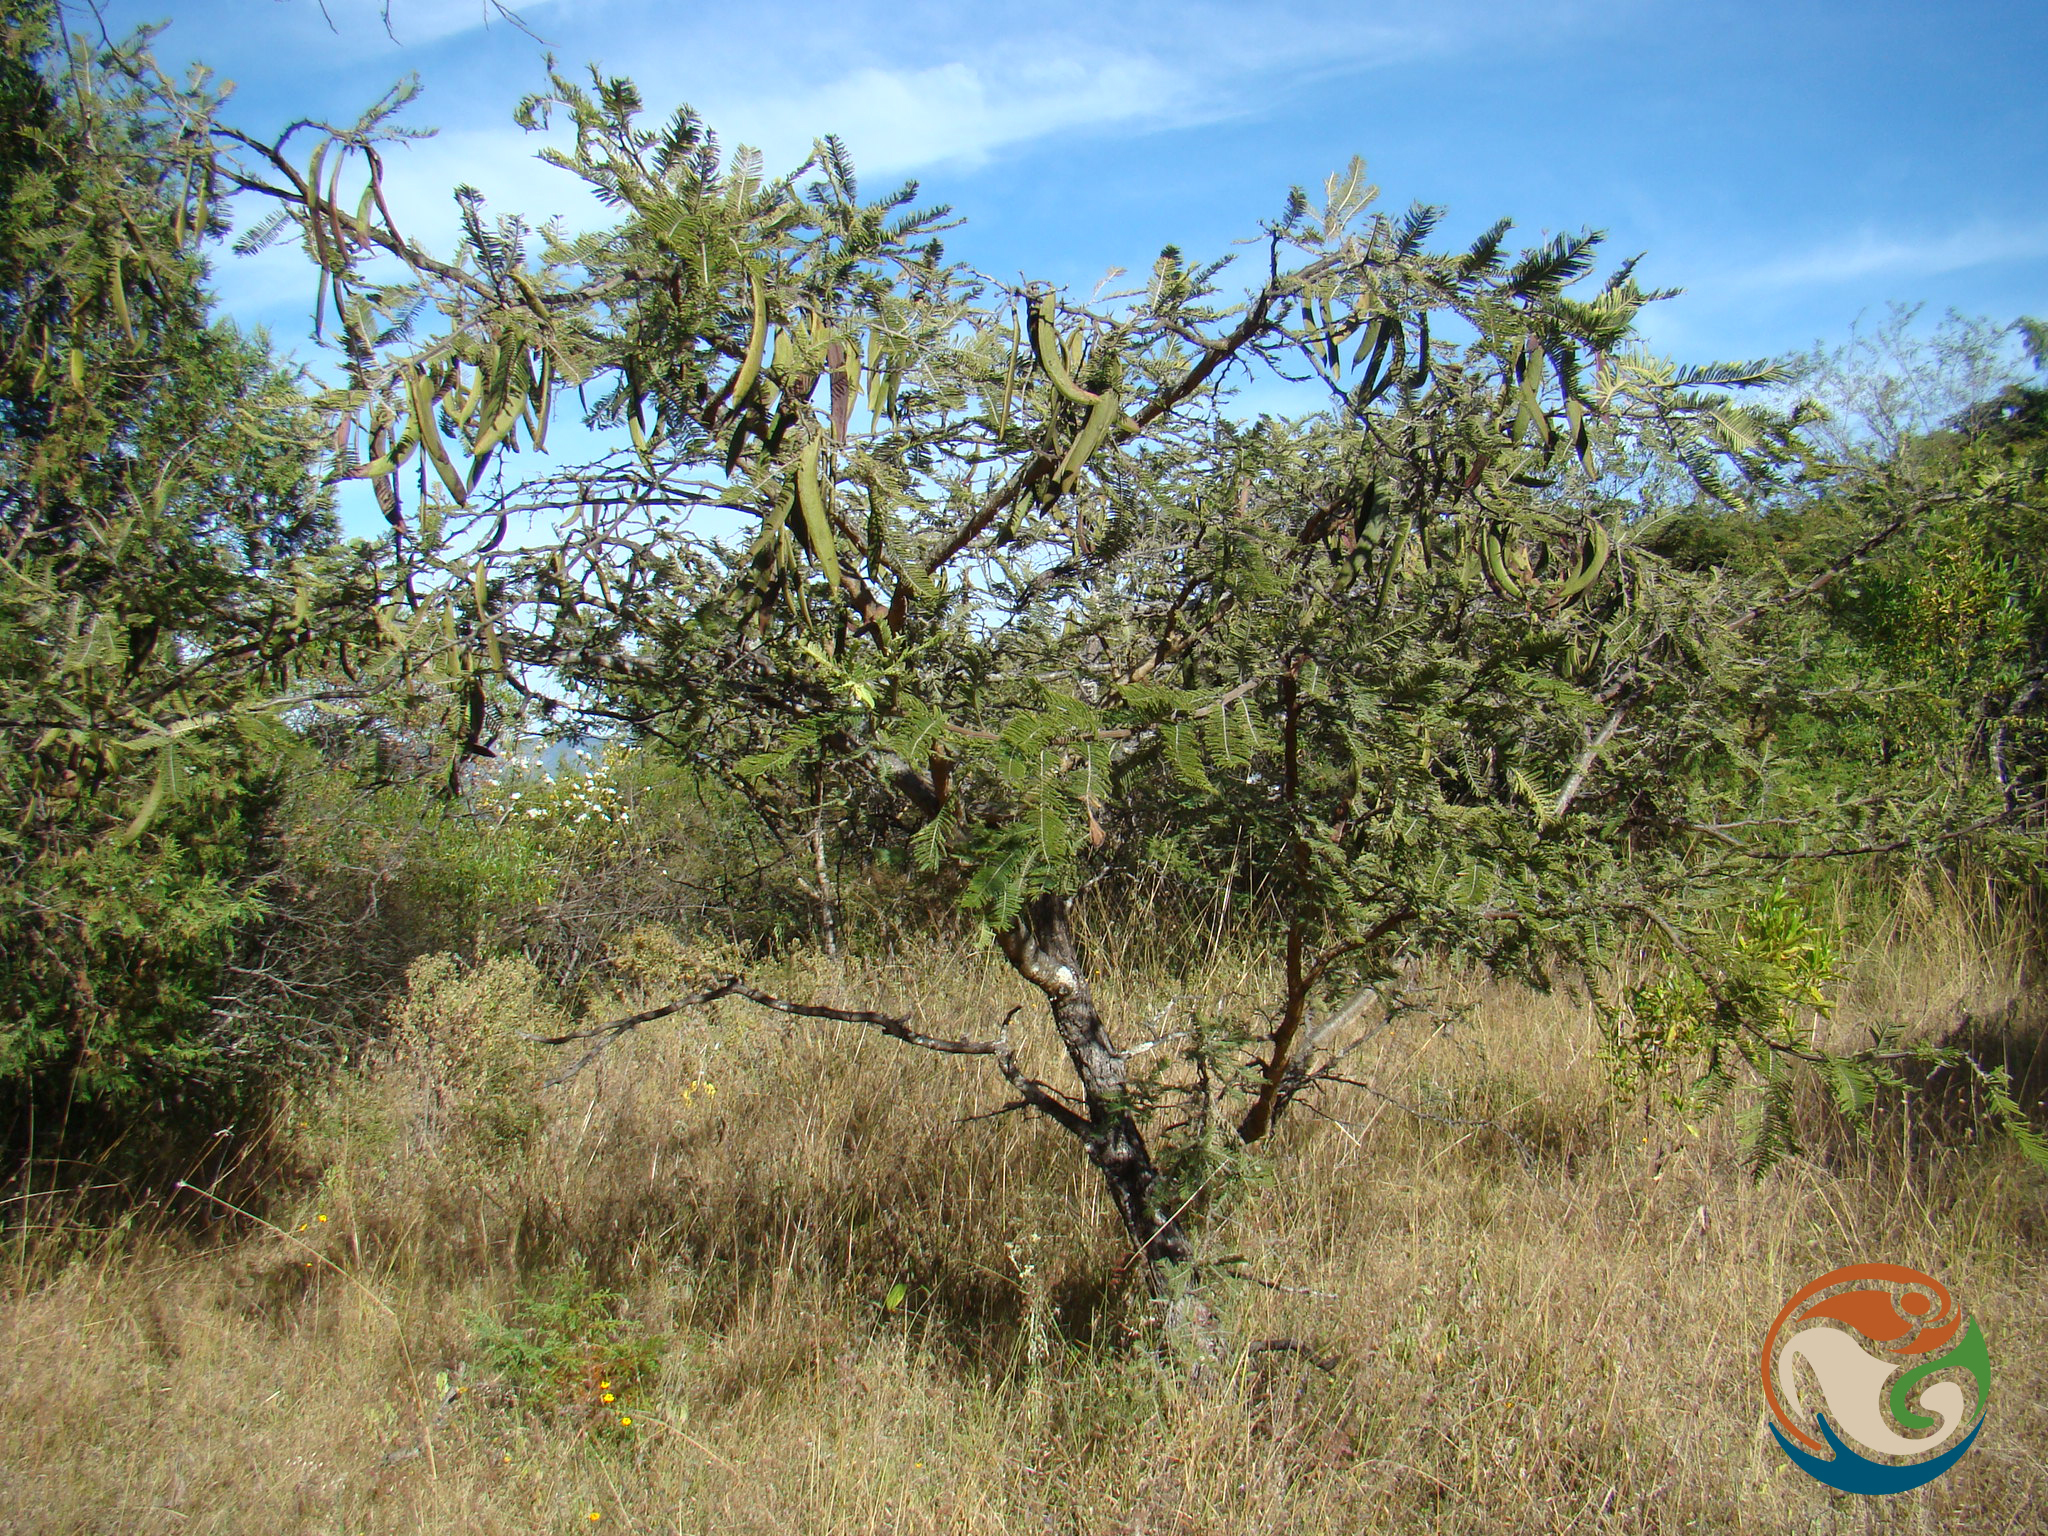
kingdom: Plantae
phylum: Tracheophyta
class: Magnoliopsida
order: Fabales
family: Fabaceae
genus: Vachellia
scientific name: Vachellia pennatula
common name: Fern-leaf acacia
